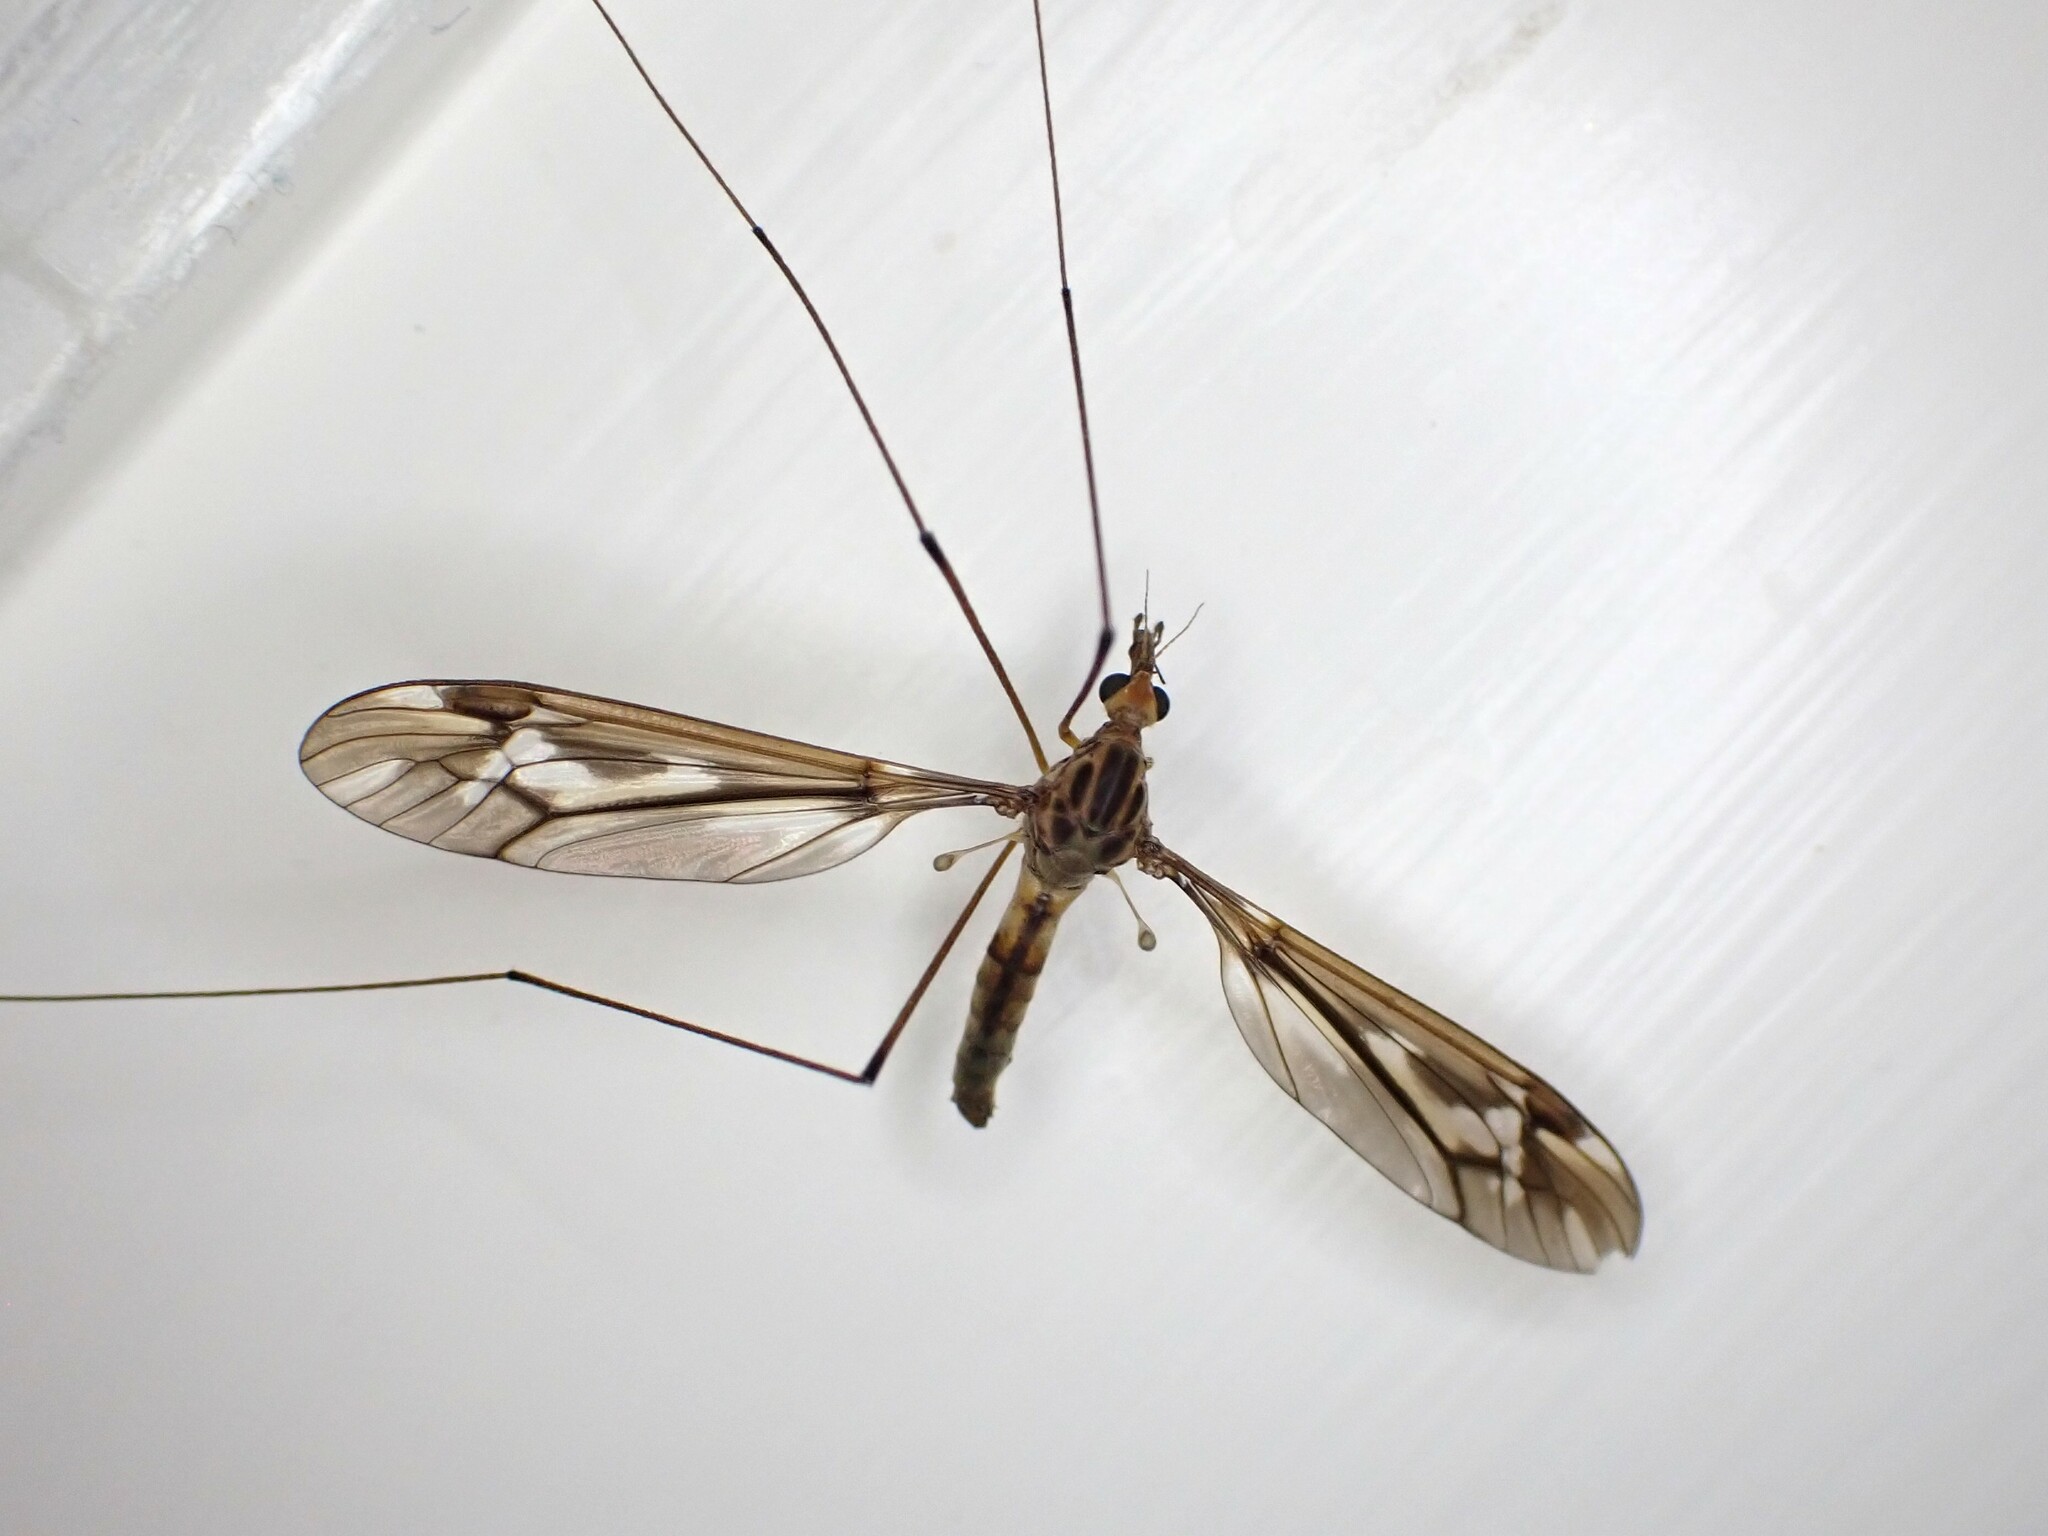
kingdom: Animalia
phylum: Arthropoda
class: Insecta
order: Diptera
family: Tipulidae
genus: Leptotarsus
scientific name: Leptotarsus huttoni
